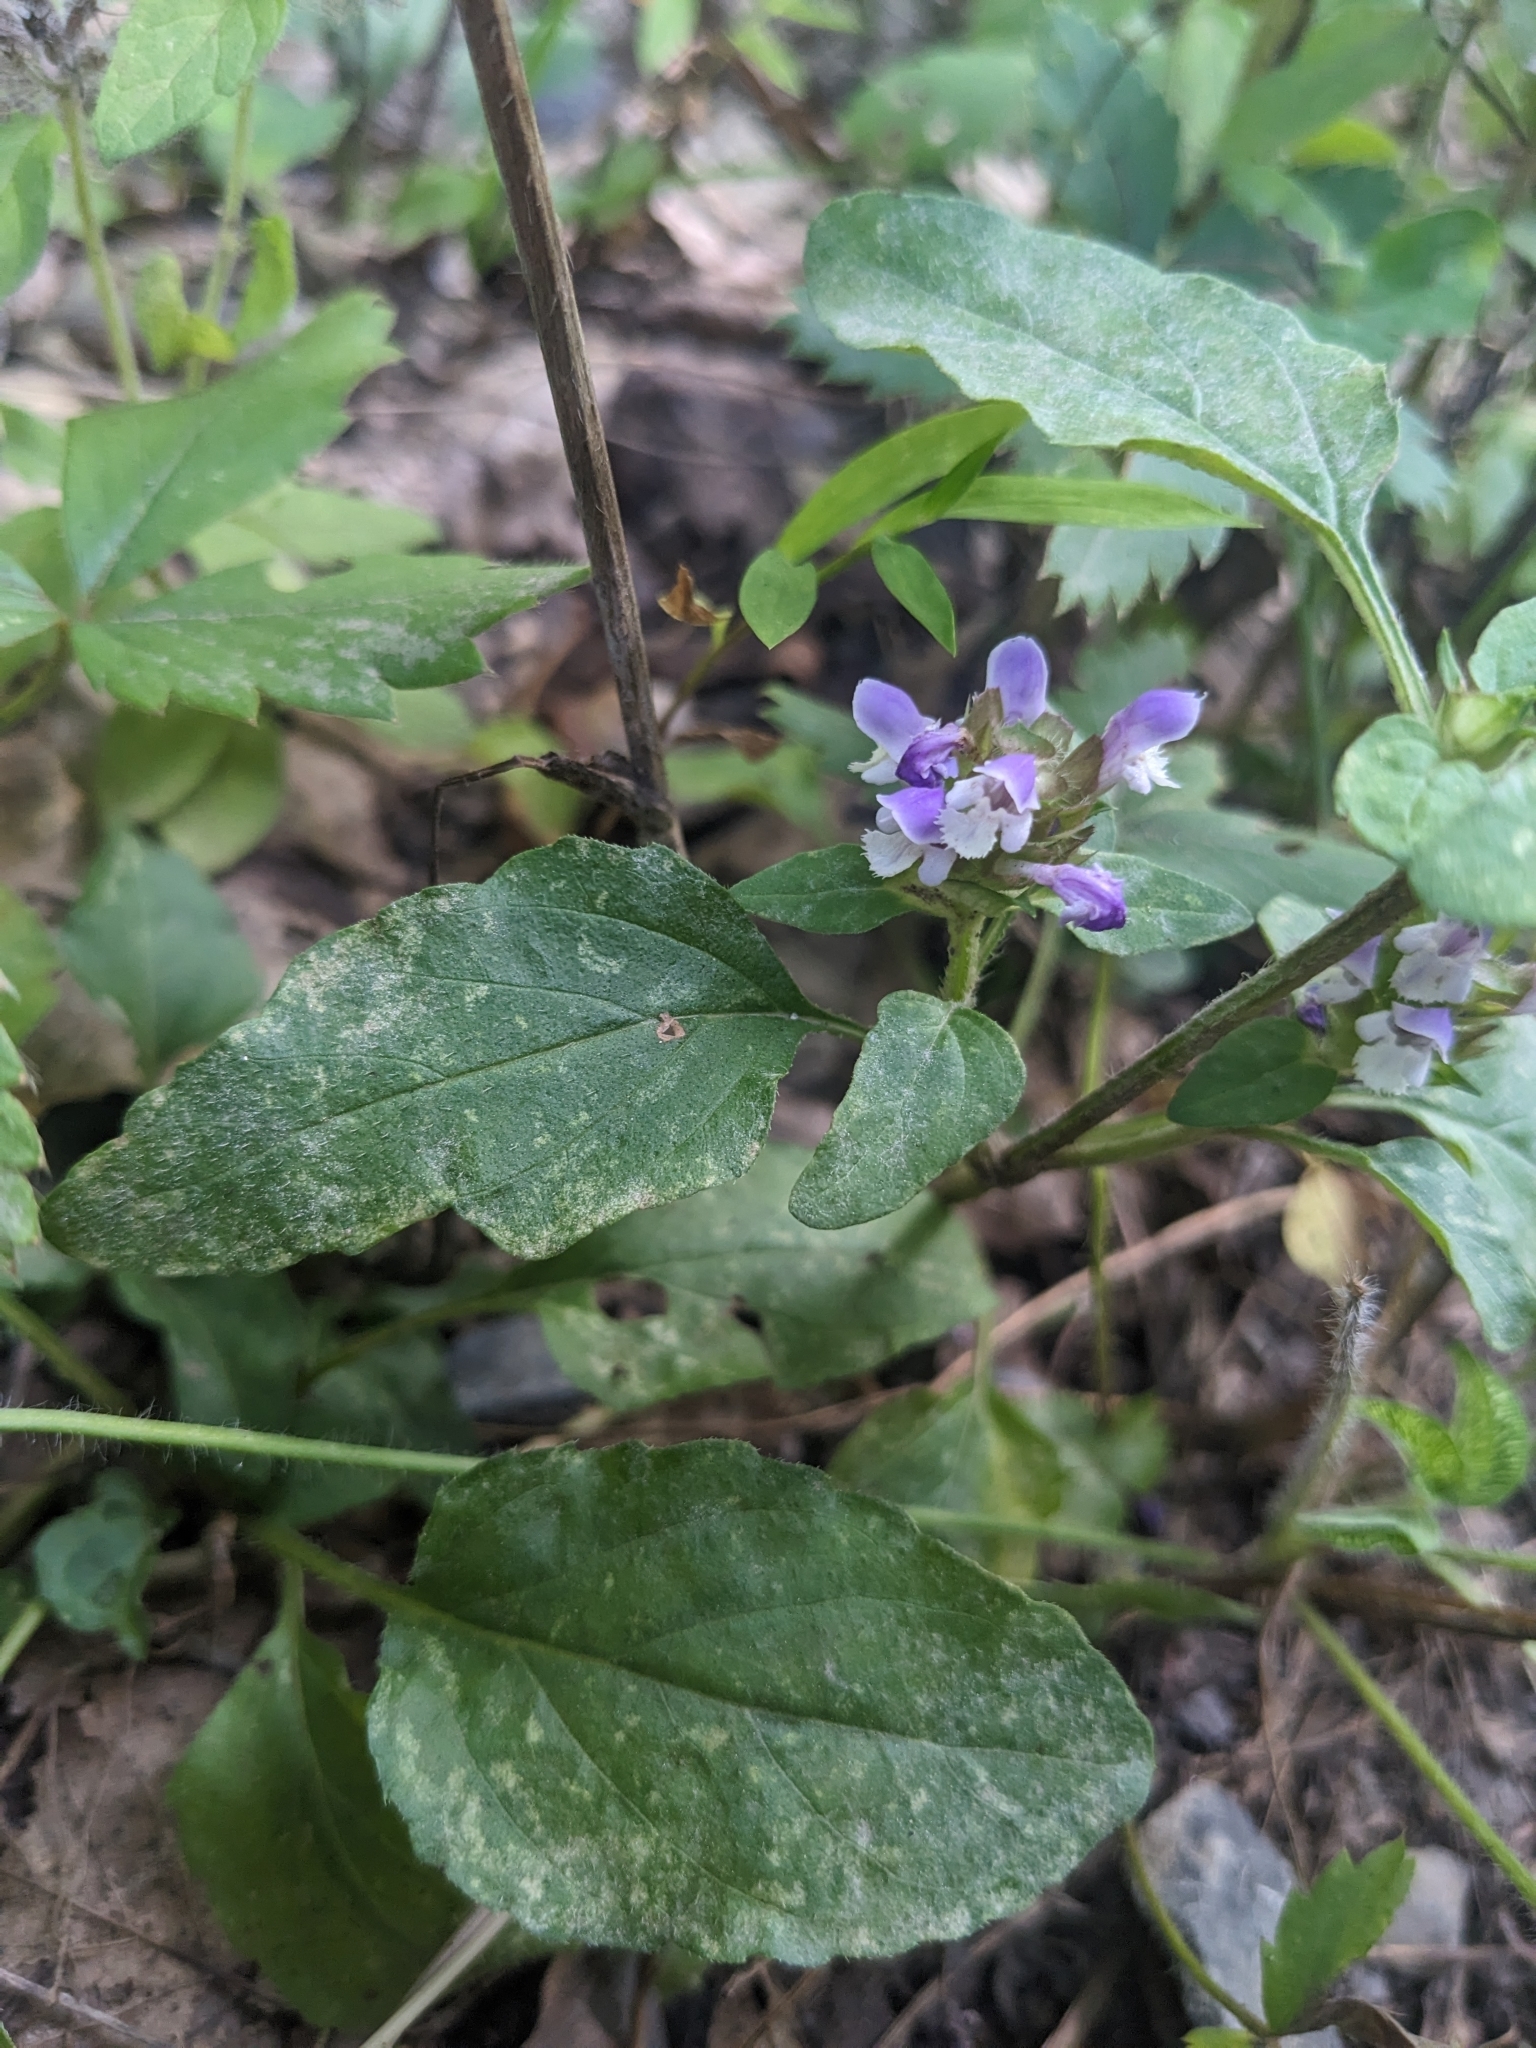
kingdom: Plantae
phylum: Tracheophyta
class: Magnoliopsida
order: Lamiales
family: Lamiaceae
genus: Prunella
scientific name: Prunella vulgaris
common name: Heal-all
